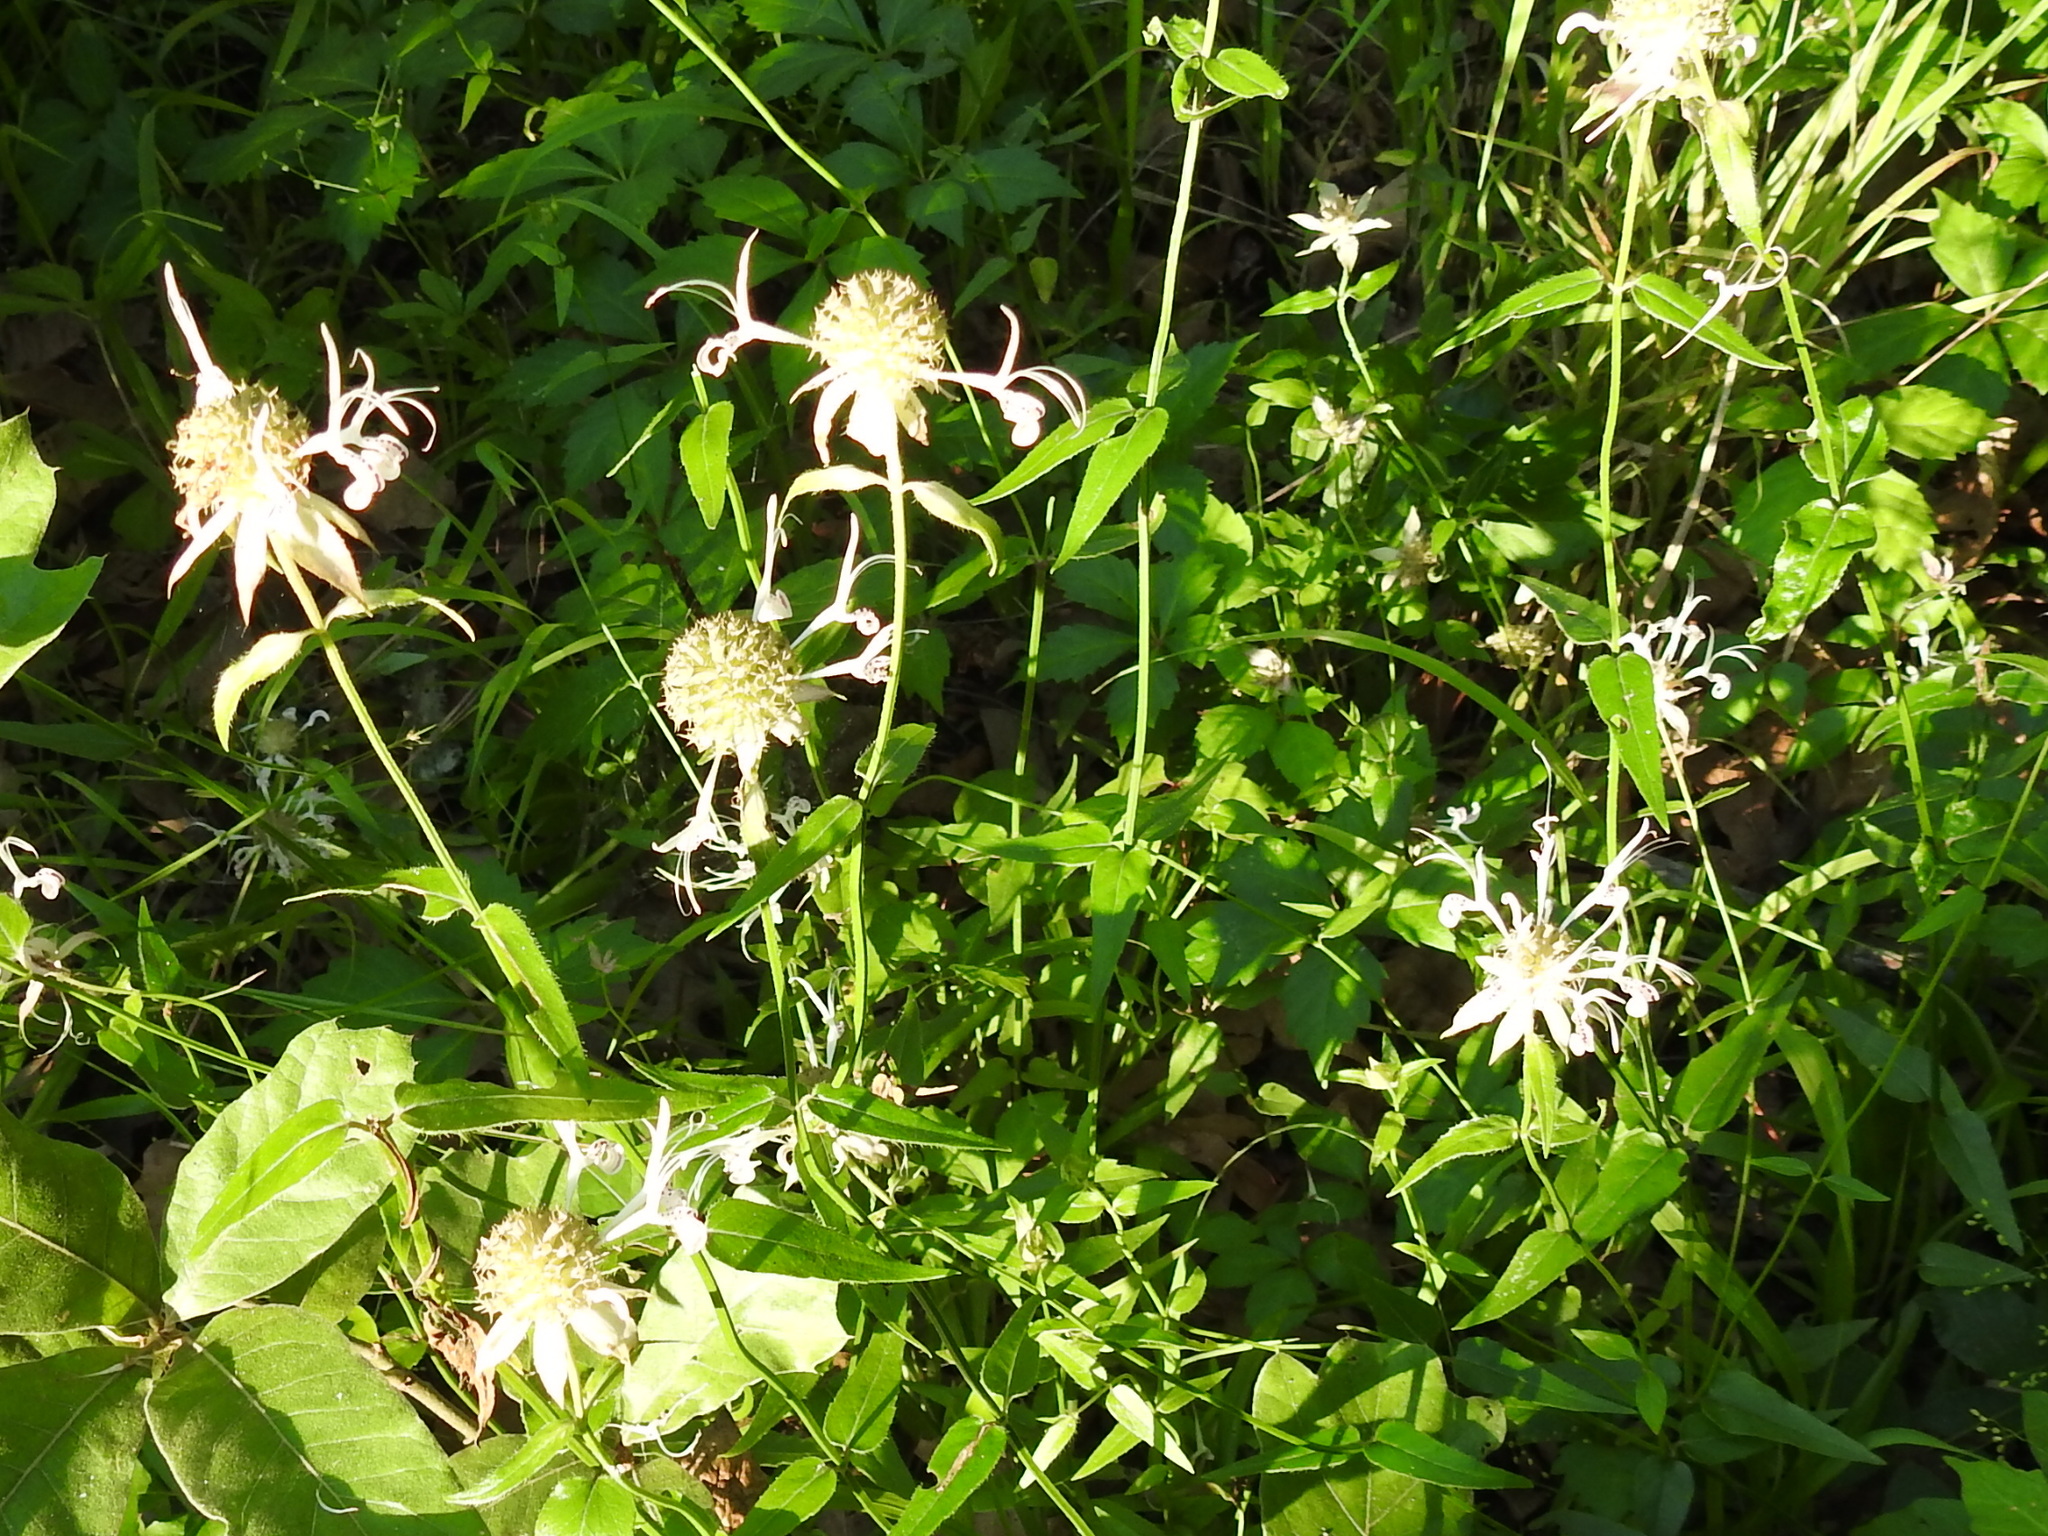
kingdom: Plantae
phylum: Tracheophyta
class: Magnoliopsida
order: Lamiales
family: Lamiaceae
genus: Monarda
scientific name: Monarda russeliana
